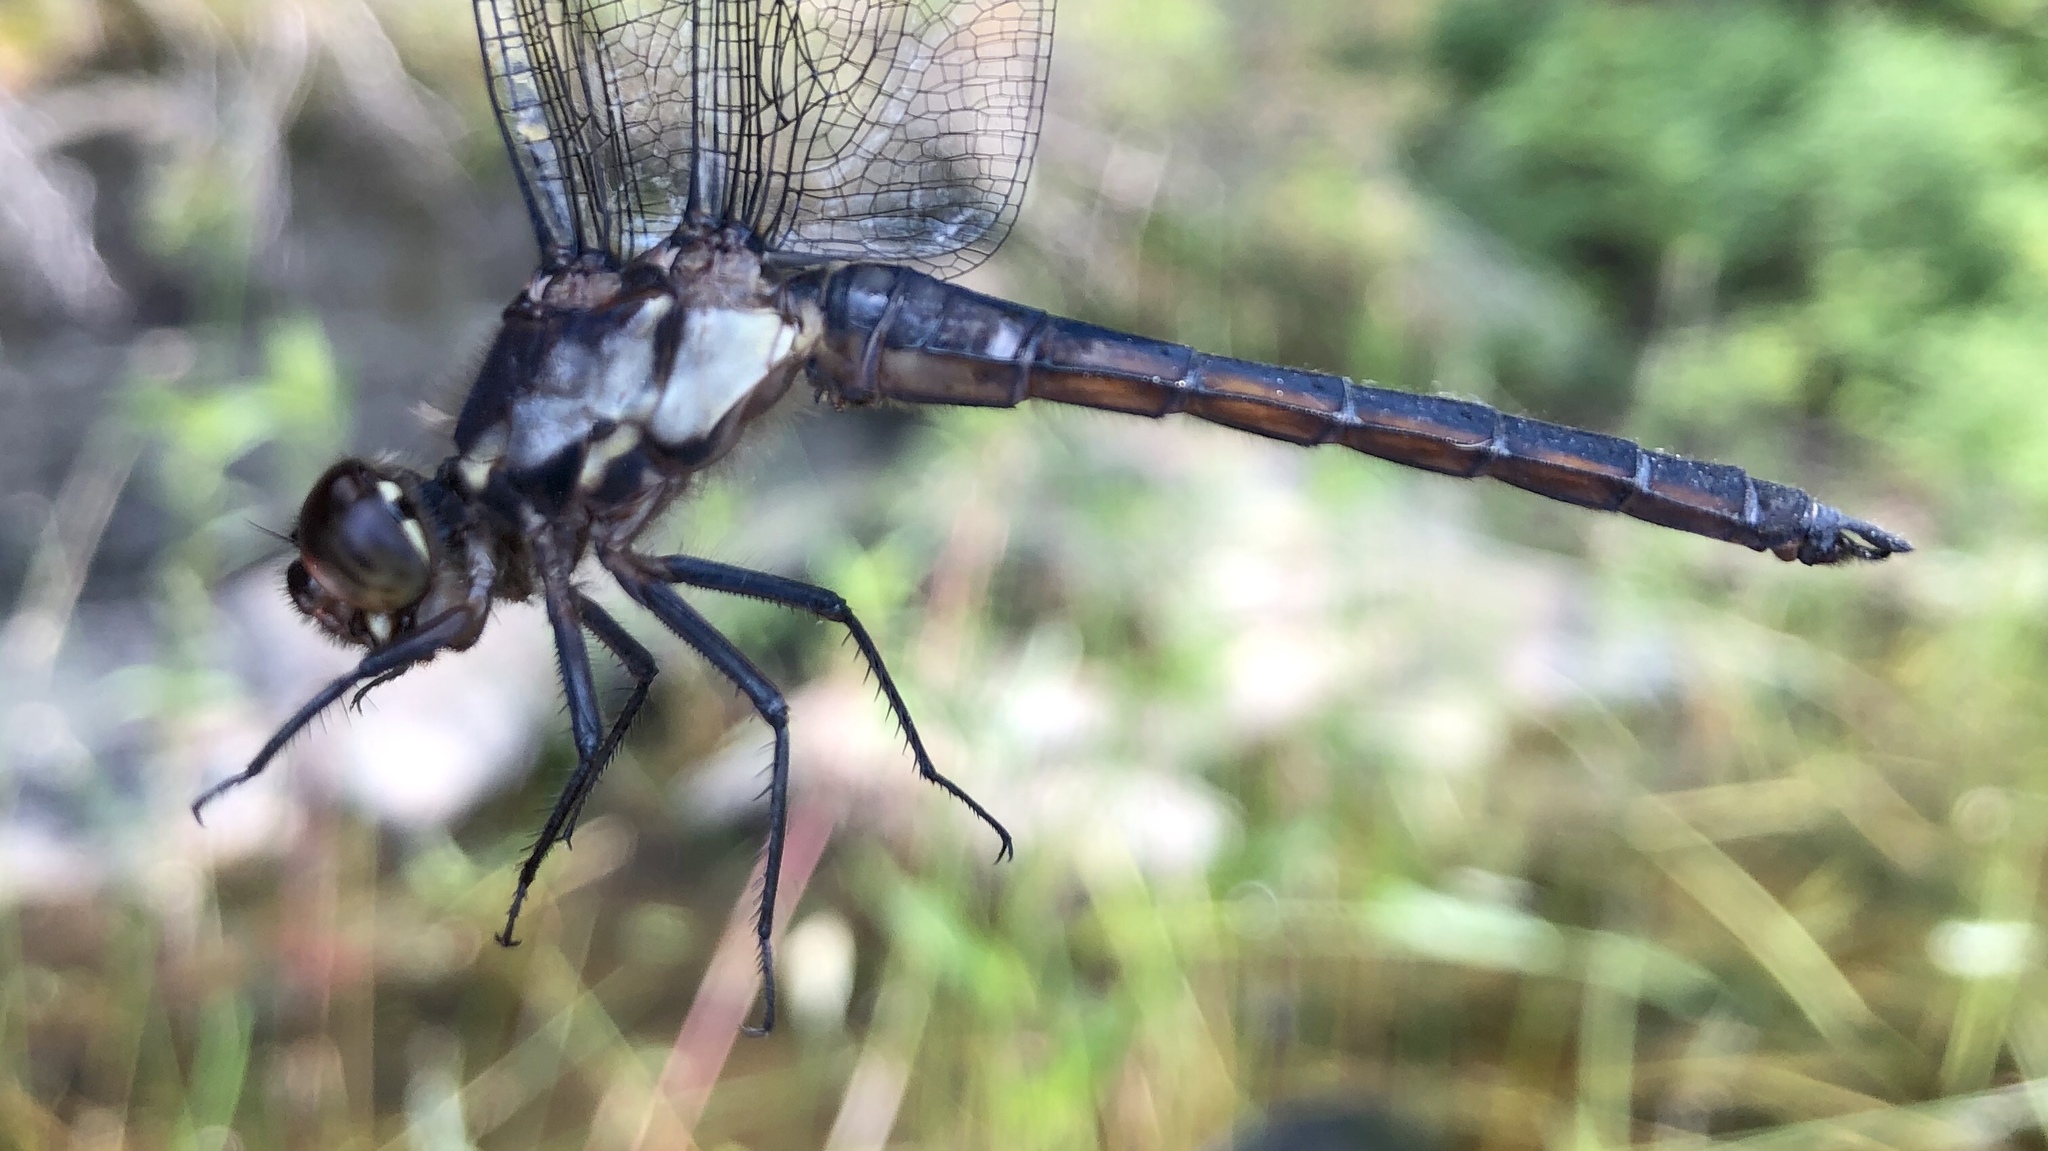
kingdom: Animalia
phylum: Arthropoda
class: Insecta
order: Odonata
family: Libellulidae
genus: Libellula
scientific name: Libellula incesta
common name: Slaty skimmer
